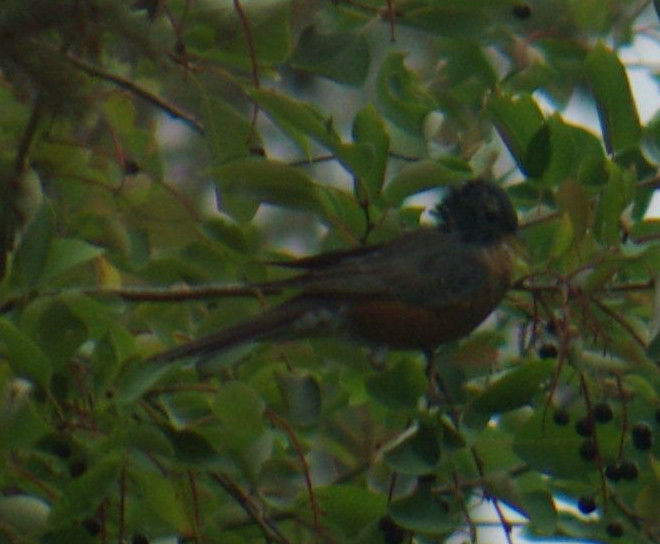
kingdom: Animalia
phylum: Chordata
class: Aves
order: Passeriformes
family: Turdidae
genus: Turdus
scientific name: Turdus migratorius
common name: American robin
